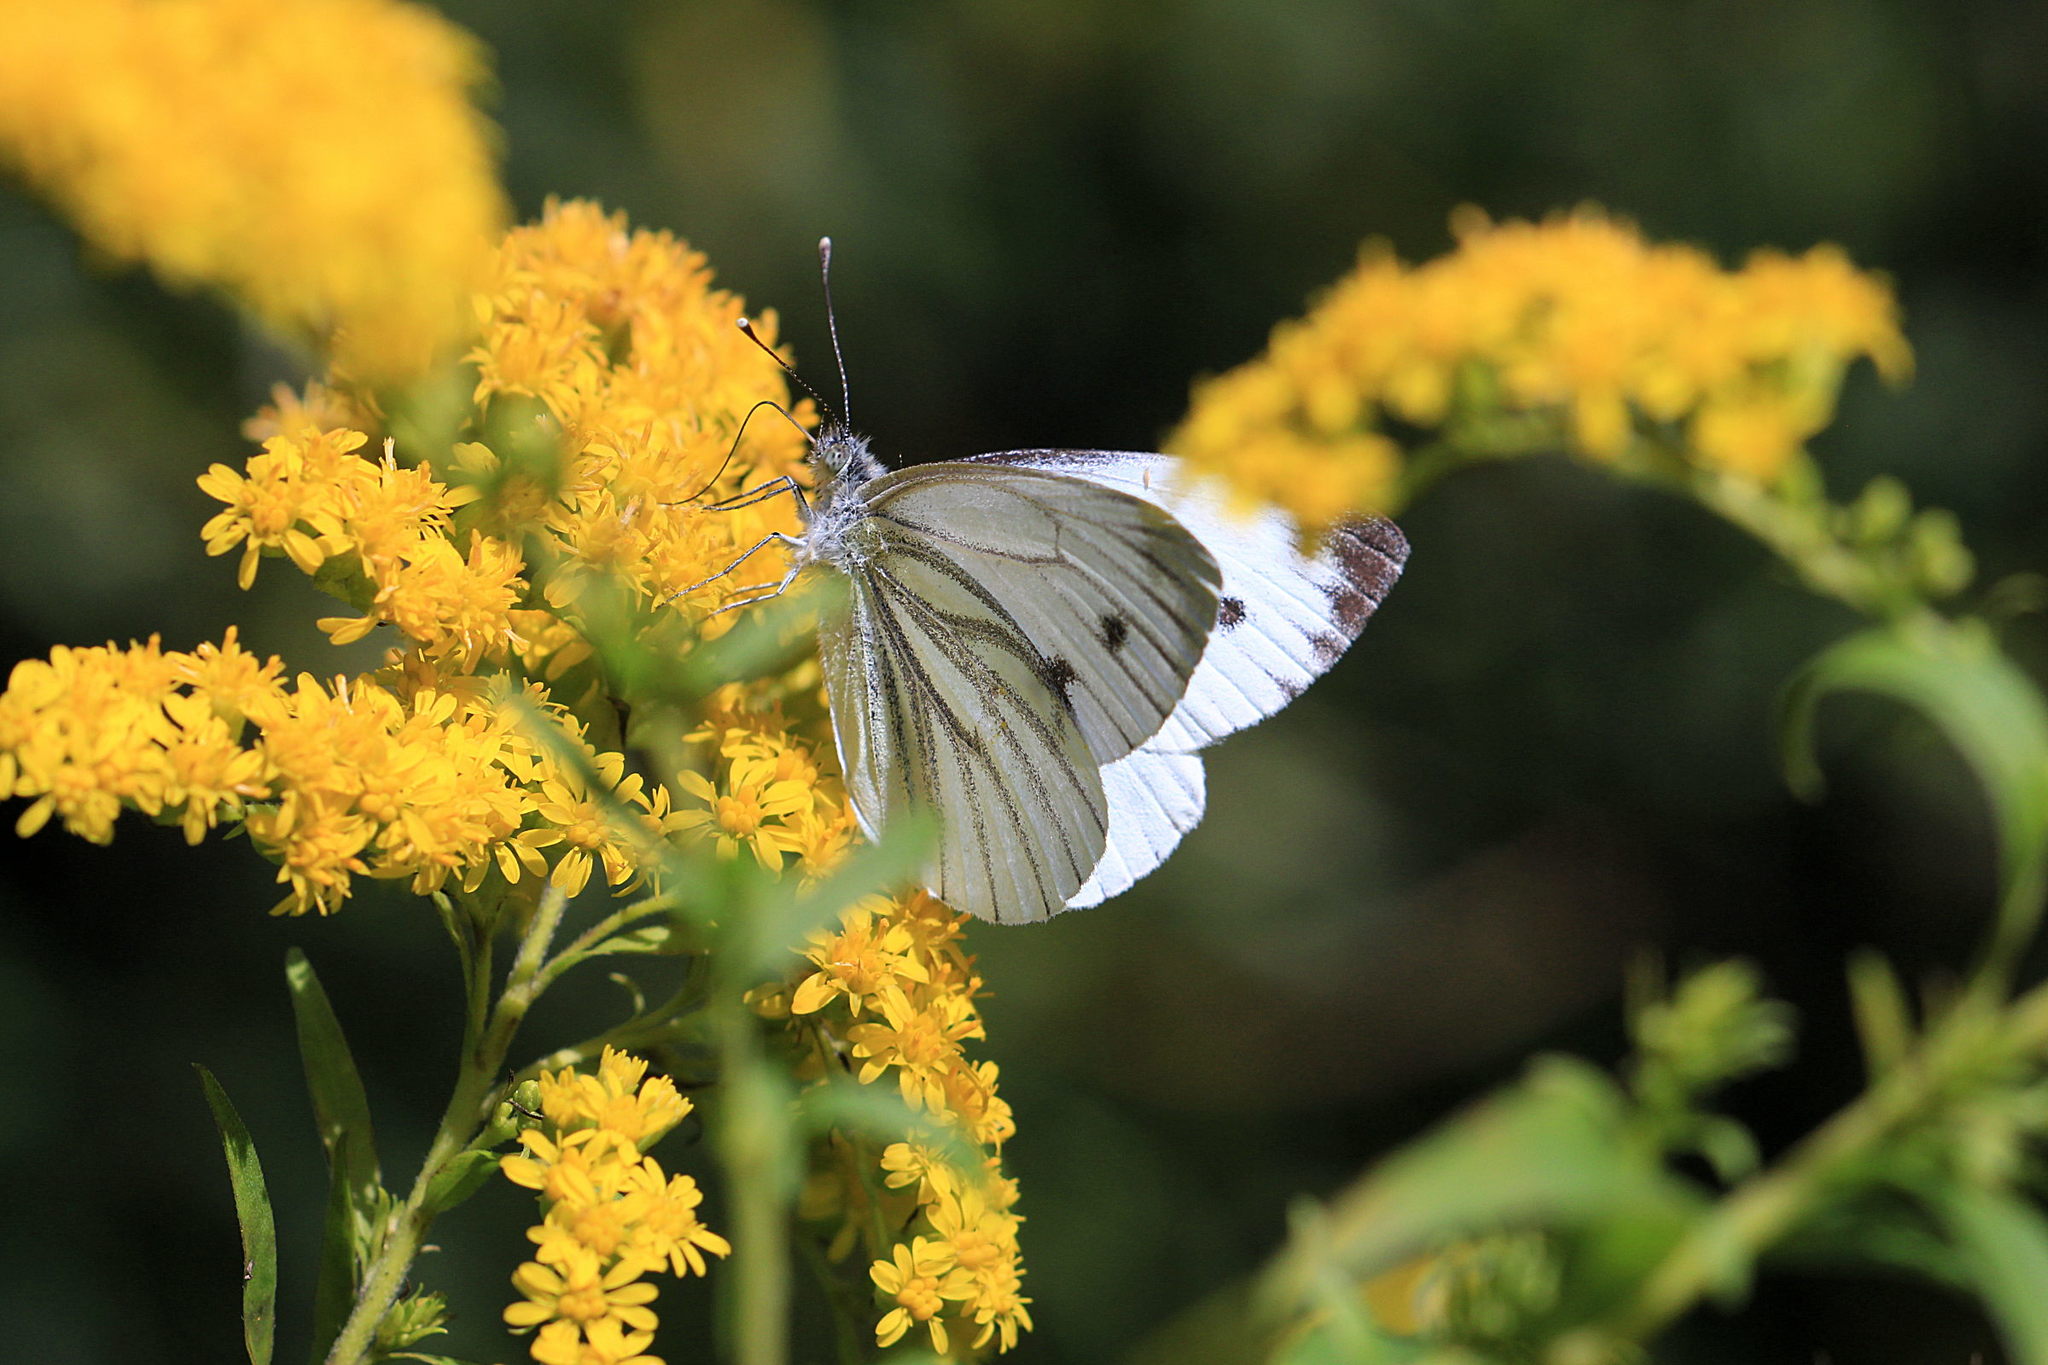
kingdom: Animalia
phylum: Arthropoda
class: Insecta
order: Lepidoptera
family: Pieridae
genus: Pieris
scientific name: Pieris napi
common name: Green-veined white
